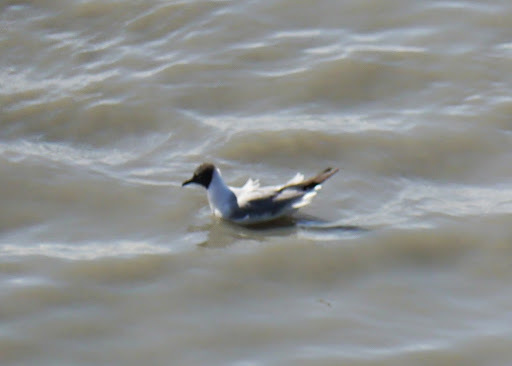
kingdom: Animalia
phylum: Chordata
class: Aves
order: Charadriiformes
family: Laridae
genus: Chroicocephalus
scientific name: Chroicocephalus philadelphia
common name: Bonaparte's gull
